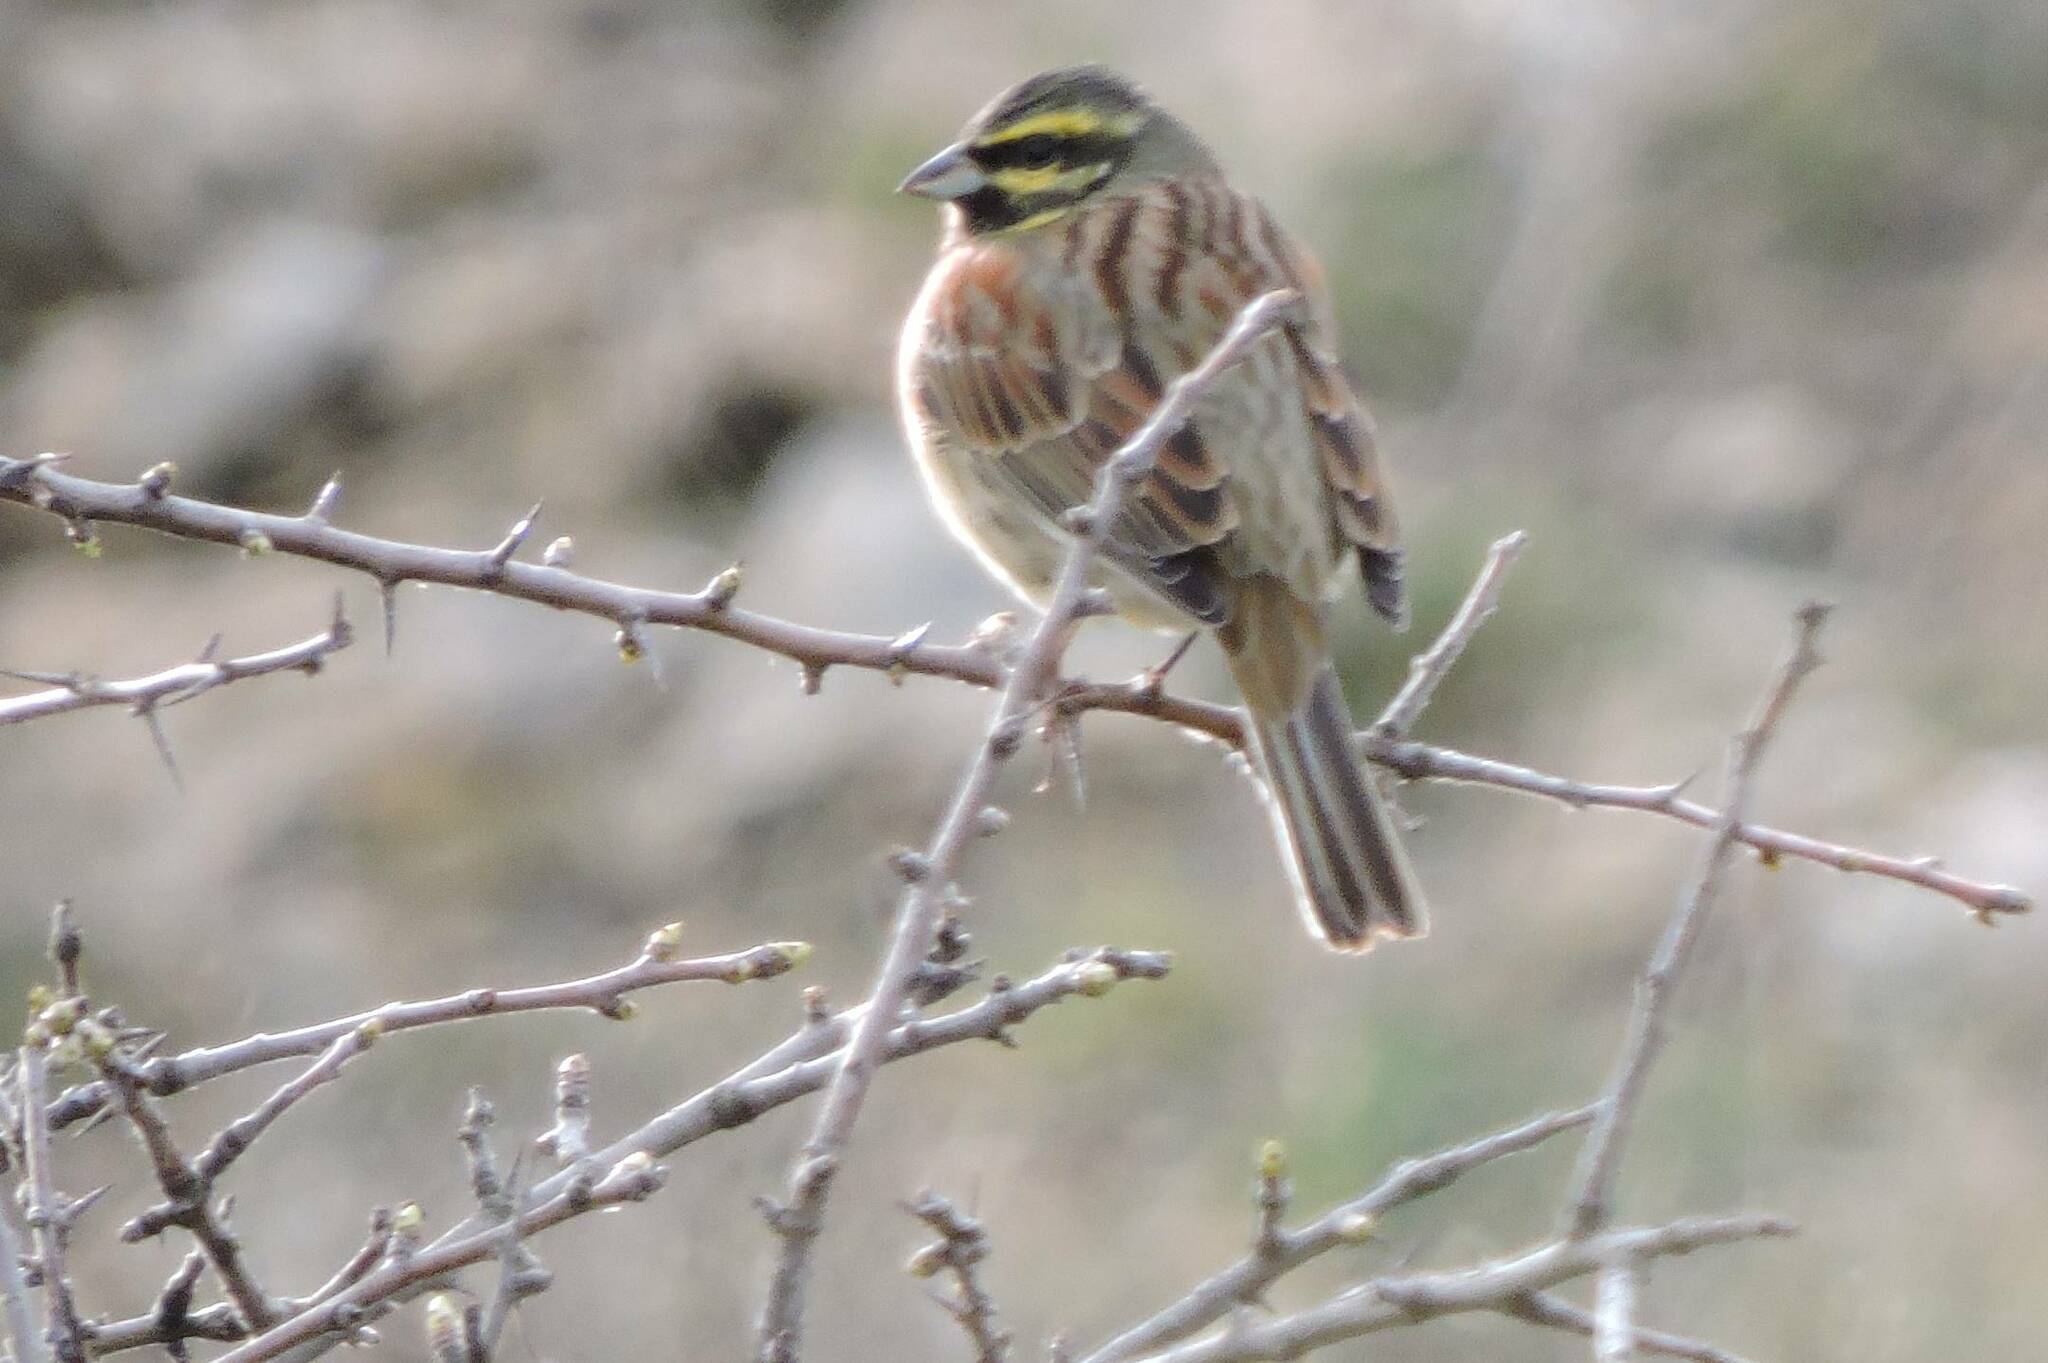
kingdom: Animalia
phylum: Chordata
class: Aves
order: Passeriformes
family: Emberizidae
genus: Emberiza
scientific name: Emberiza cirlus
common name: Cirl bunting
